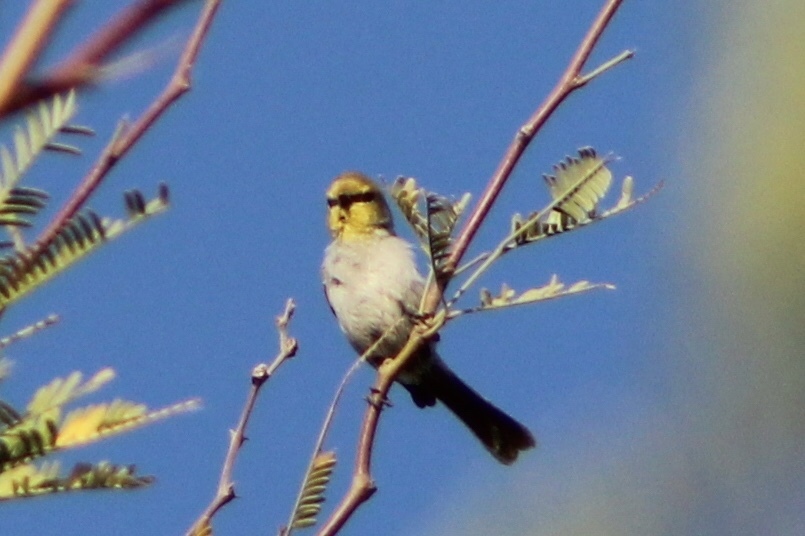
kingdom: Animalia
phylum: Chordata
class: Aves
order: Passeriformes
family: Remizidae
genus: Auriparus
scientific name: Auriparus flaviceps
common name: Verdin
